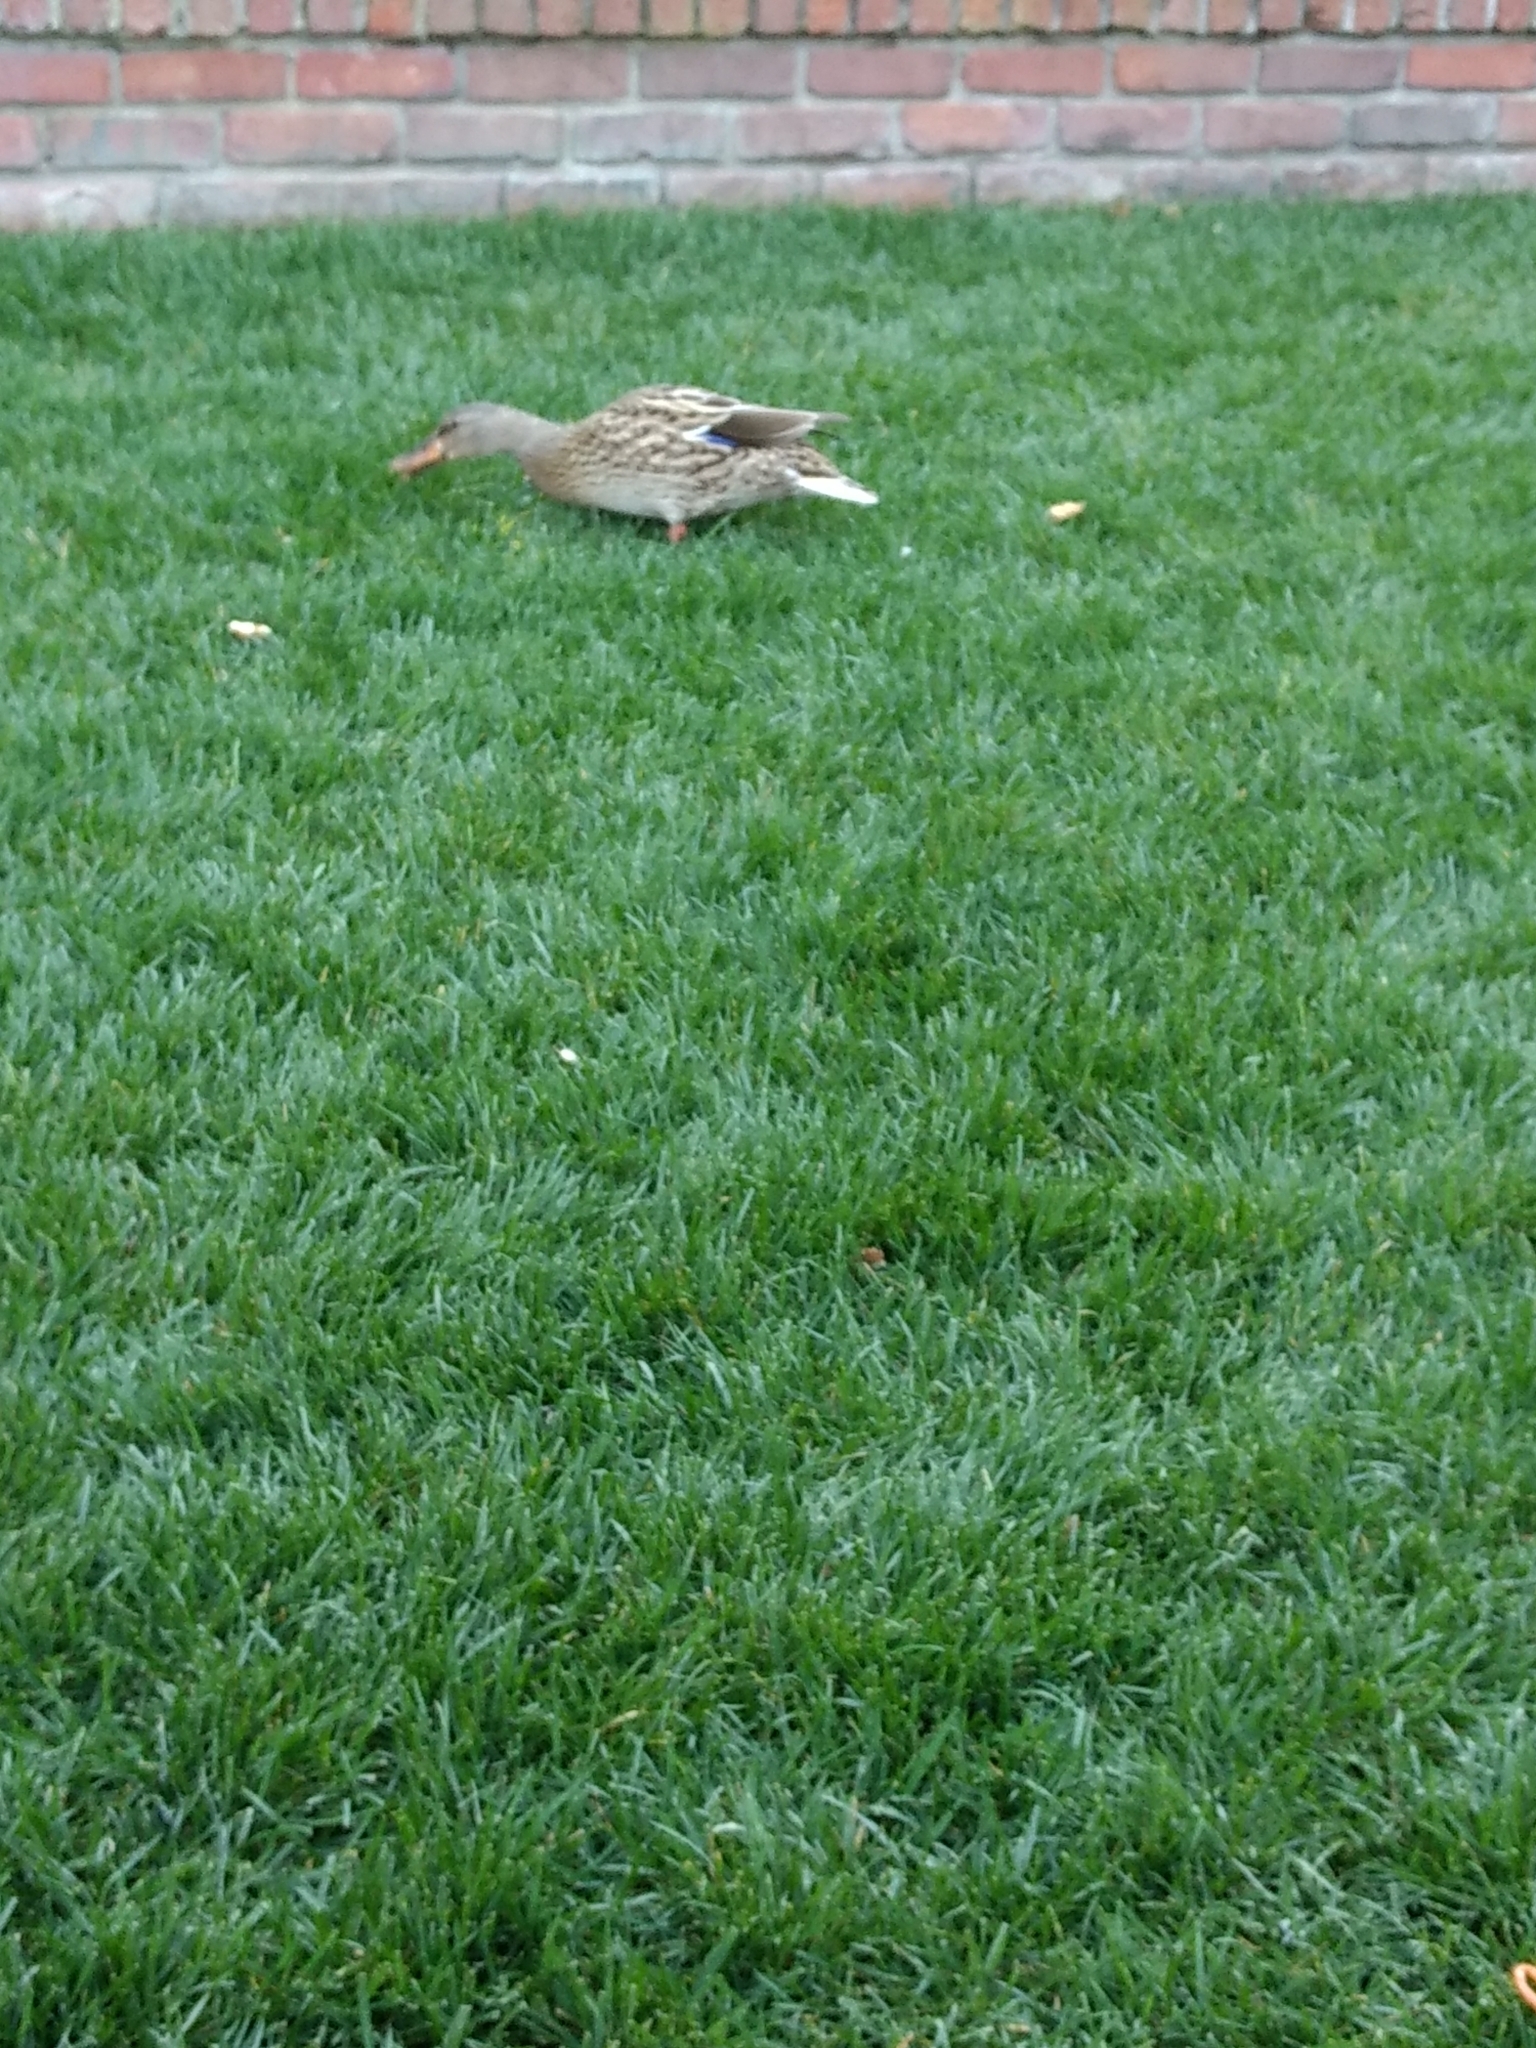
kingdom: Animalia
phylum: Chordata
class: Aves
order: Anseriformes
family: Anatidae
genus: Anas
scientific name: Anas platyrhynchos
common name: Mallard
